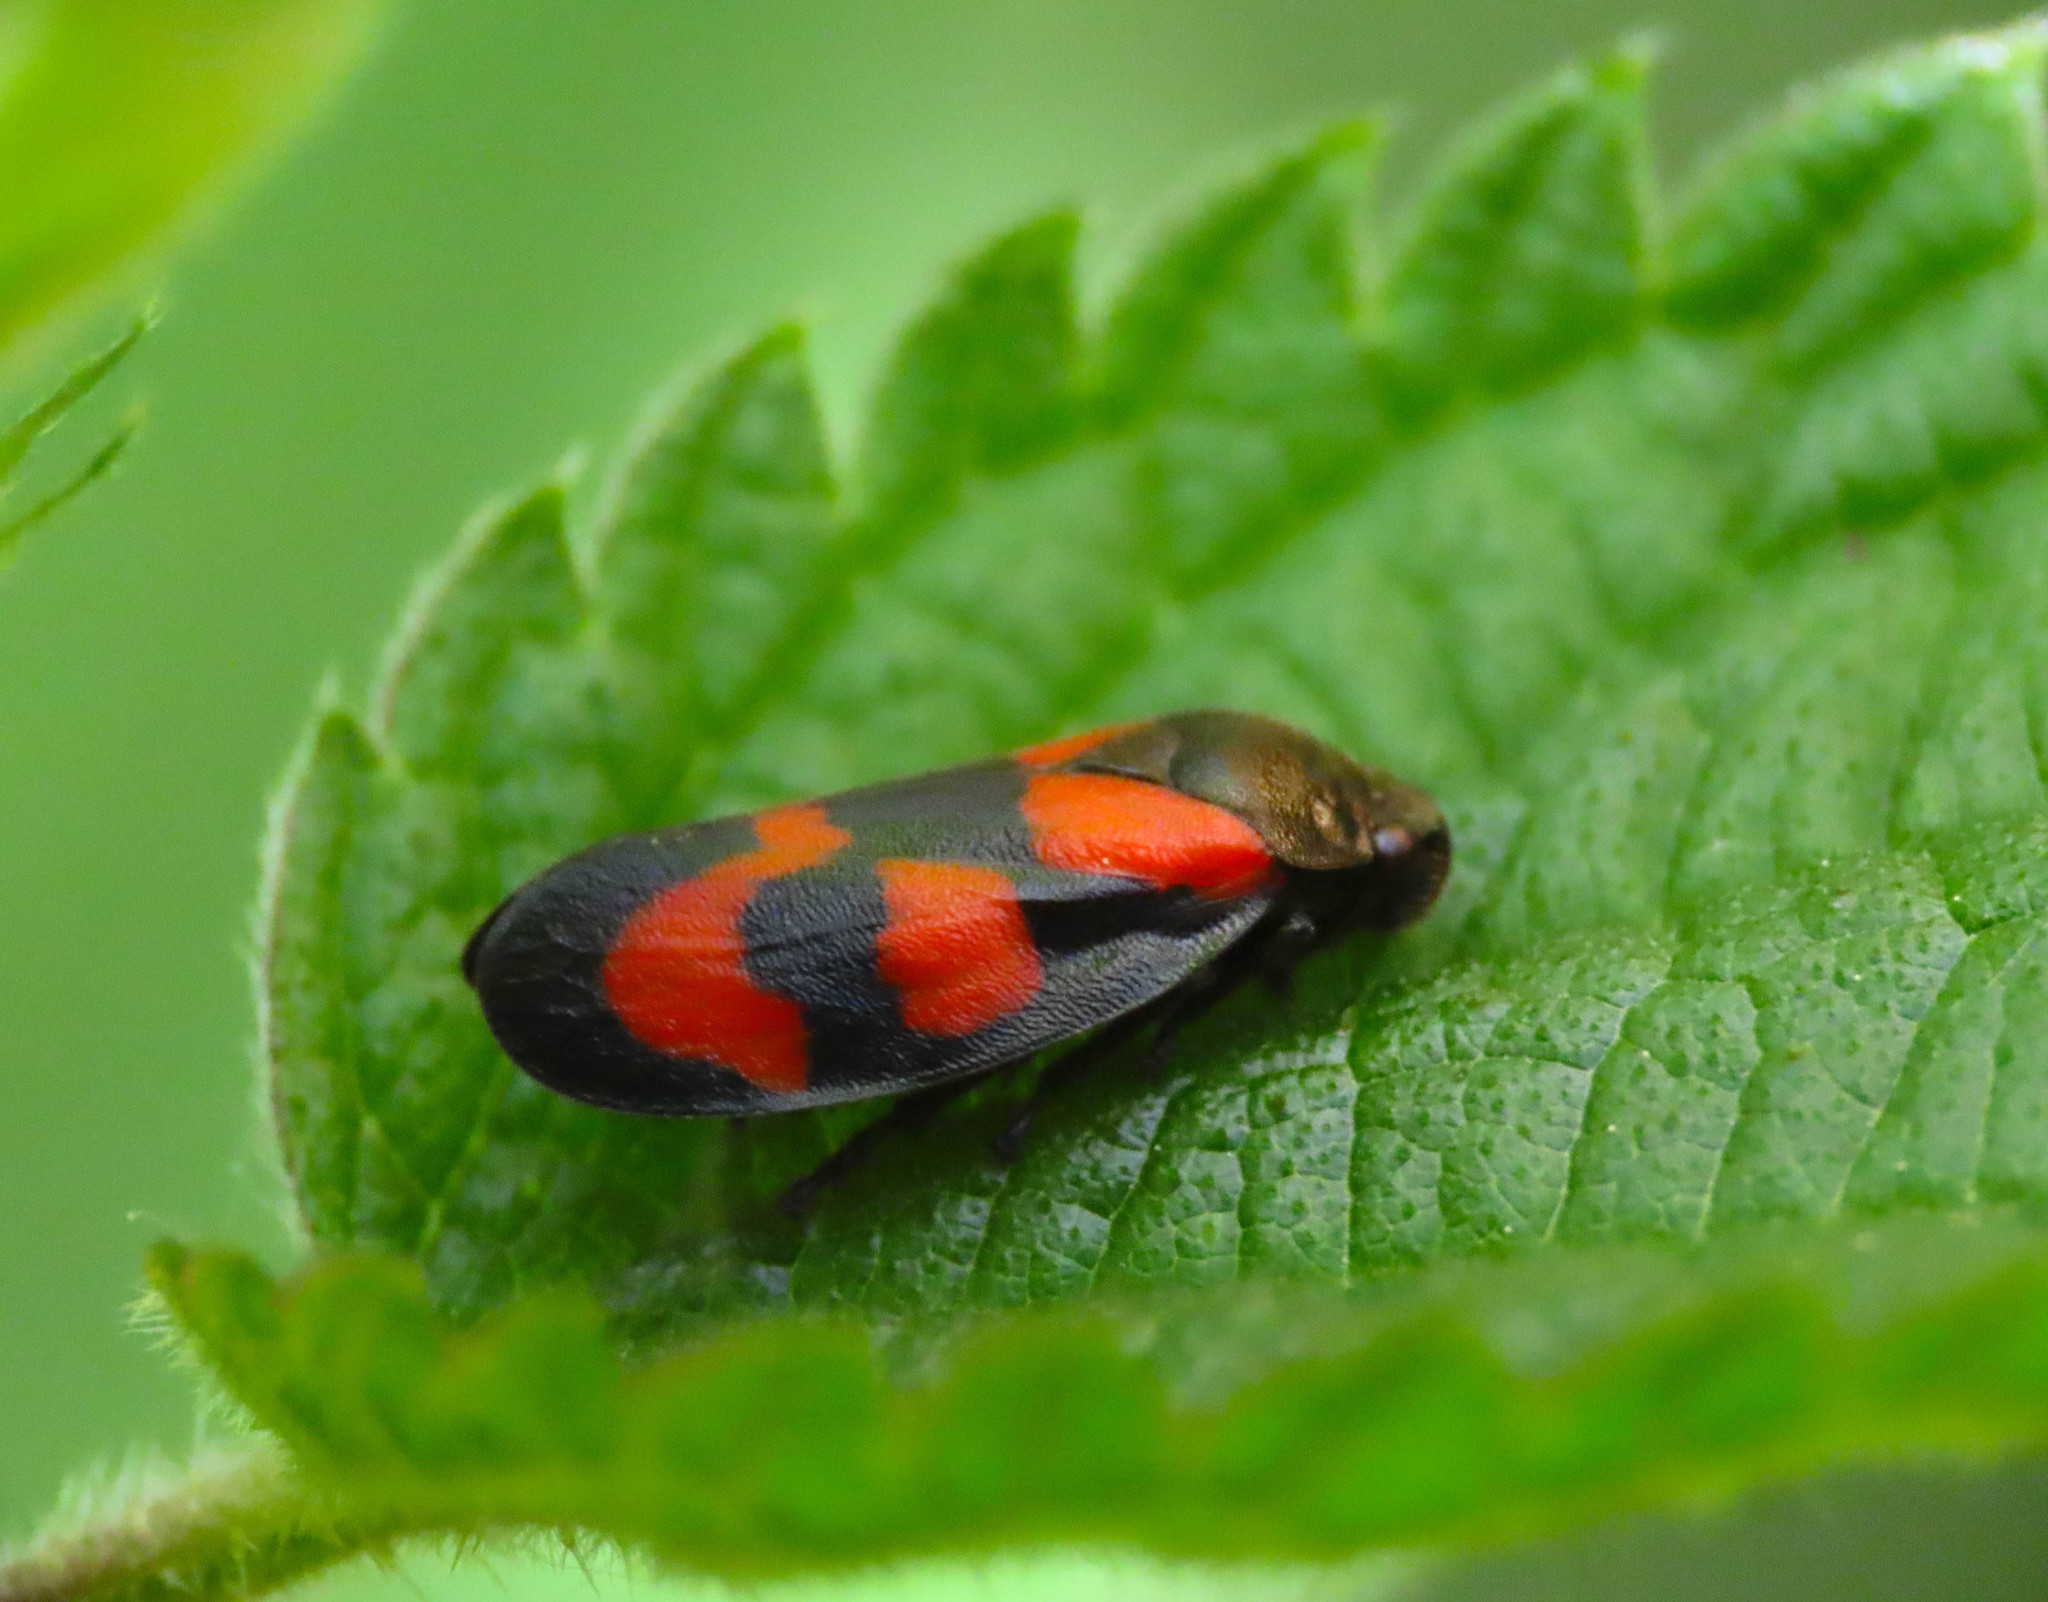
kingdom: Animalia
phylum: Arthropoda
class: Insecta
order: Hemiptera
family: Cercopidae
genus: Cercopis
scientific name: Cercopis vulnerata
